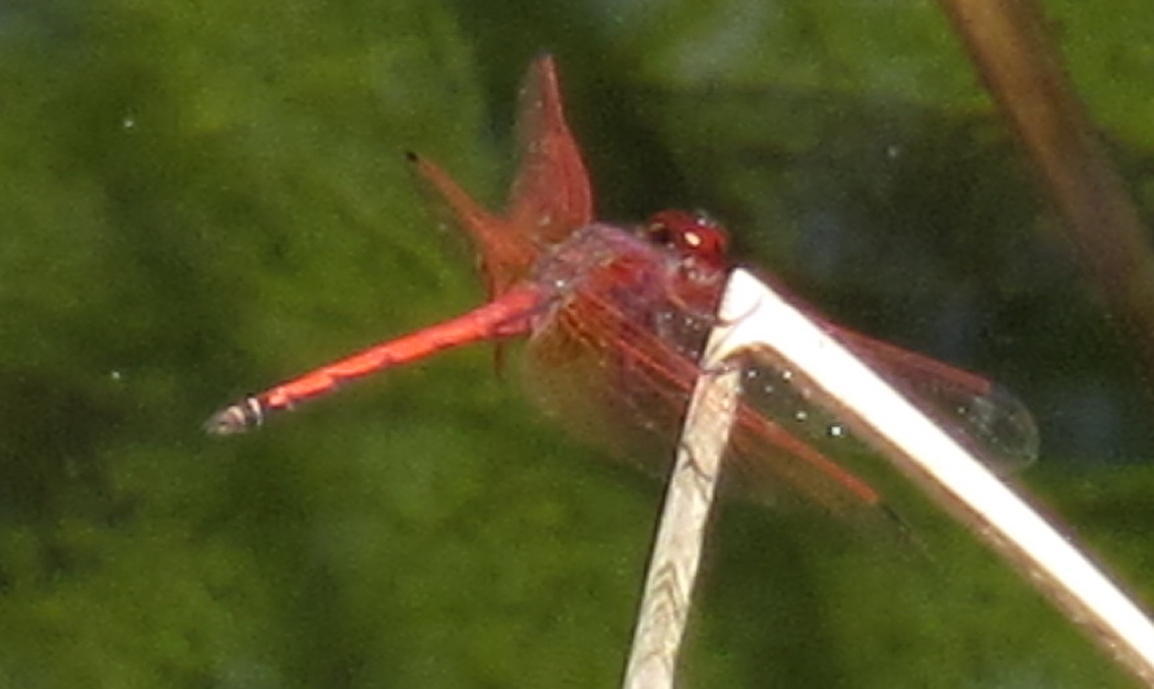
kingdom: Animalia
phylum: Arthropoda
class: Insecta
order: Odonata
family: Libellulidae
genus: Trithemis
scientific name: Trithemis arteriosa
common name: Red-veined dropwing
